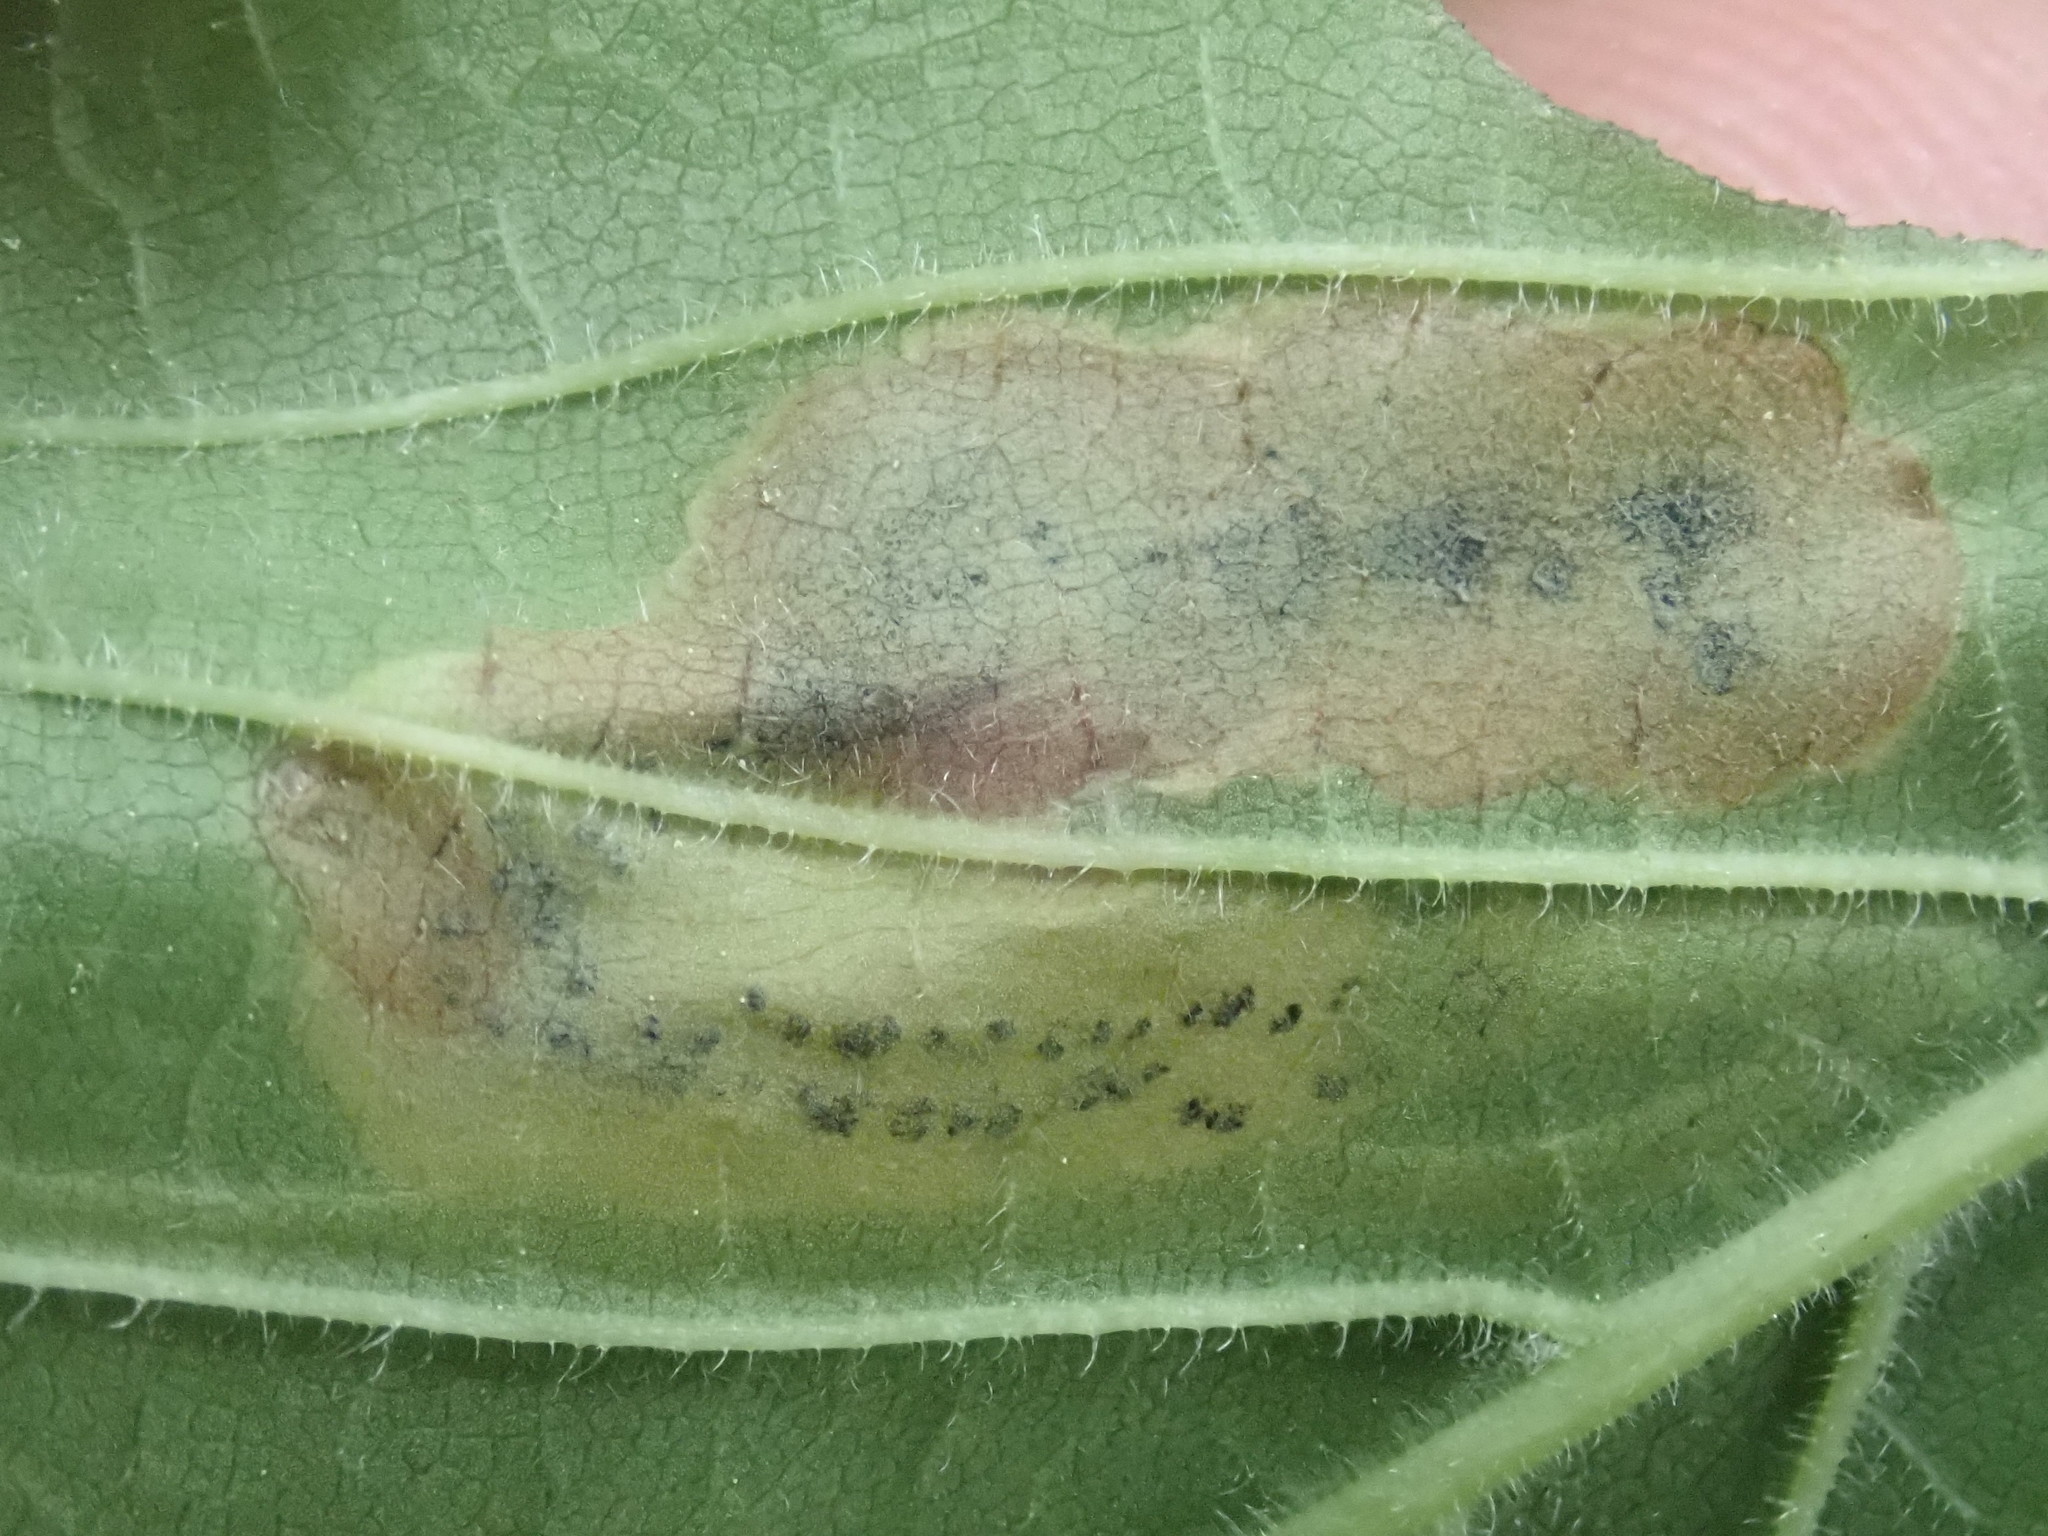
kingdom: Animalia
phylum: Arthropoda
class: Insecta
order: Diptera
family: Agromyzidae
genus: Agromyza
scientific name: Agromyza aristata
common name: Elm agromyzid leafminer
